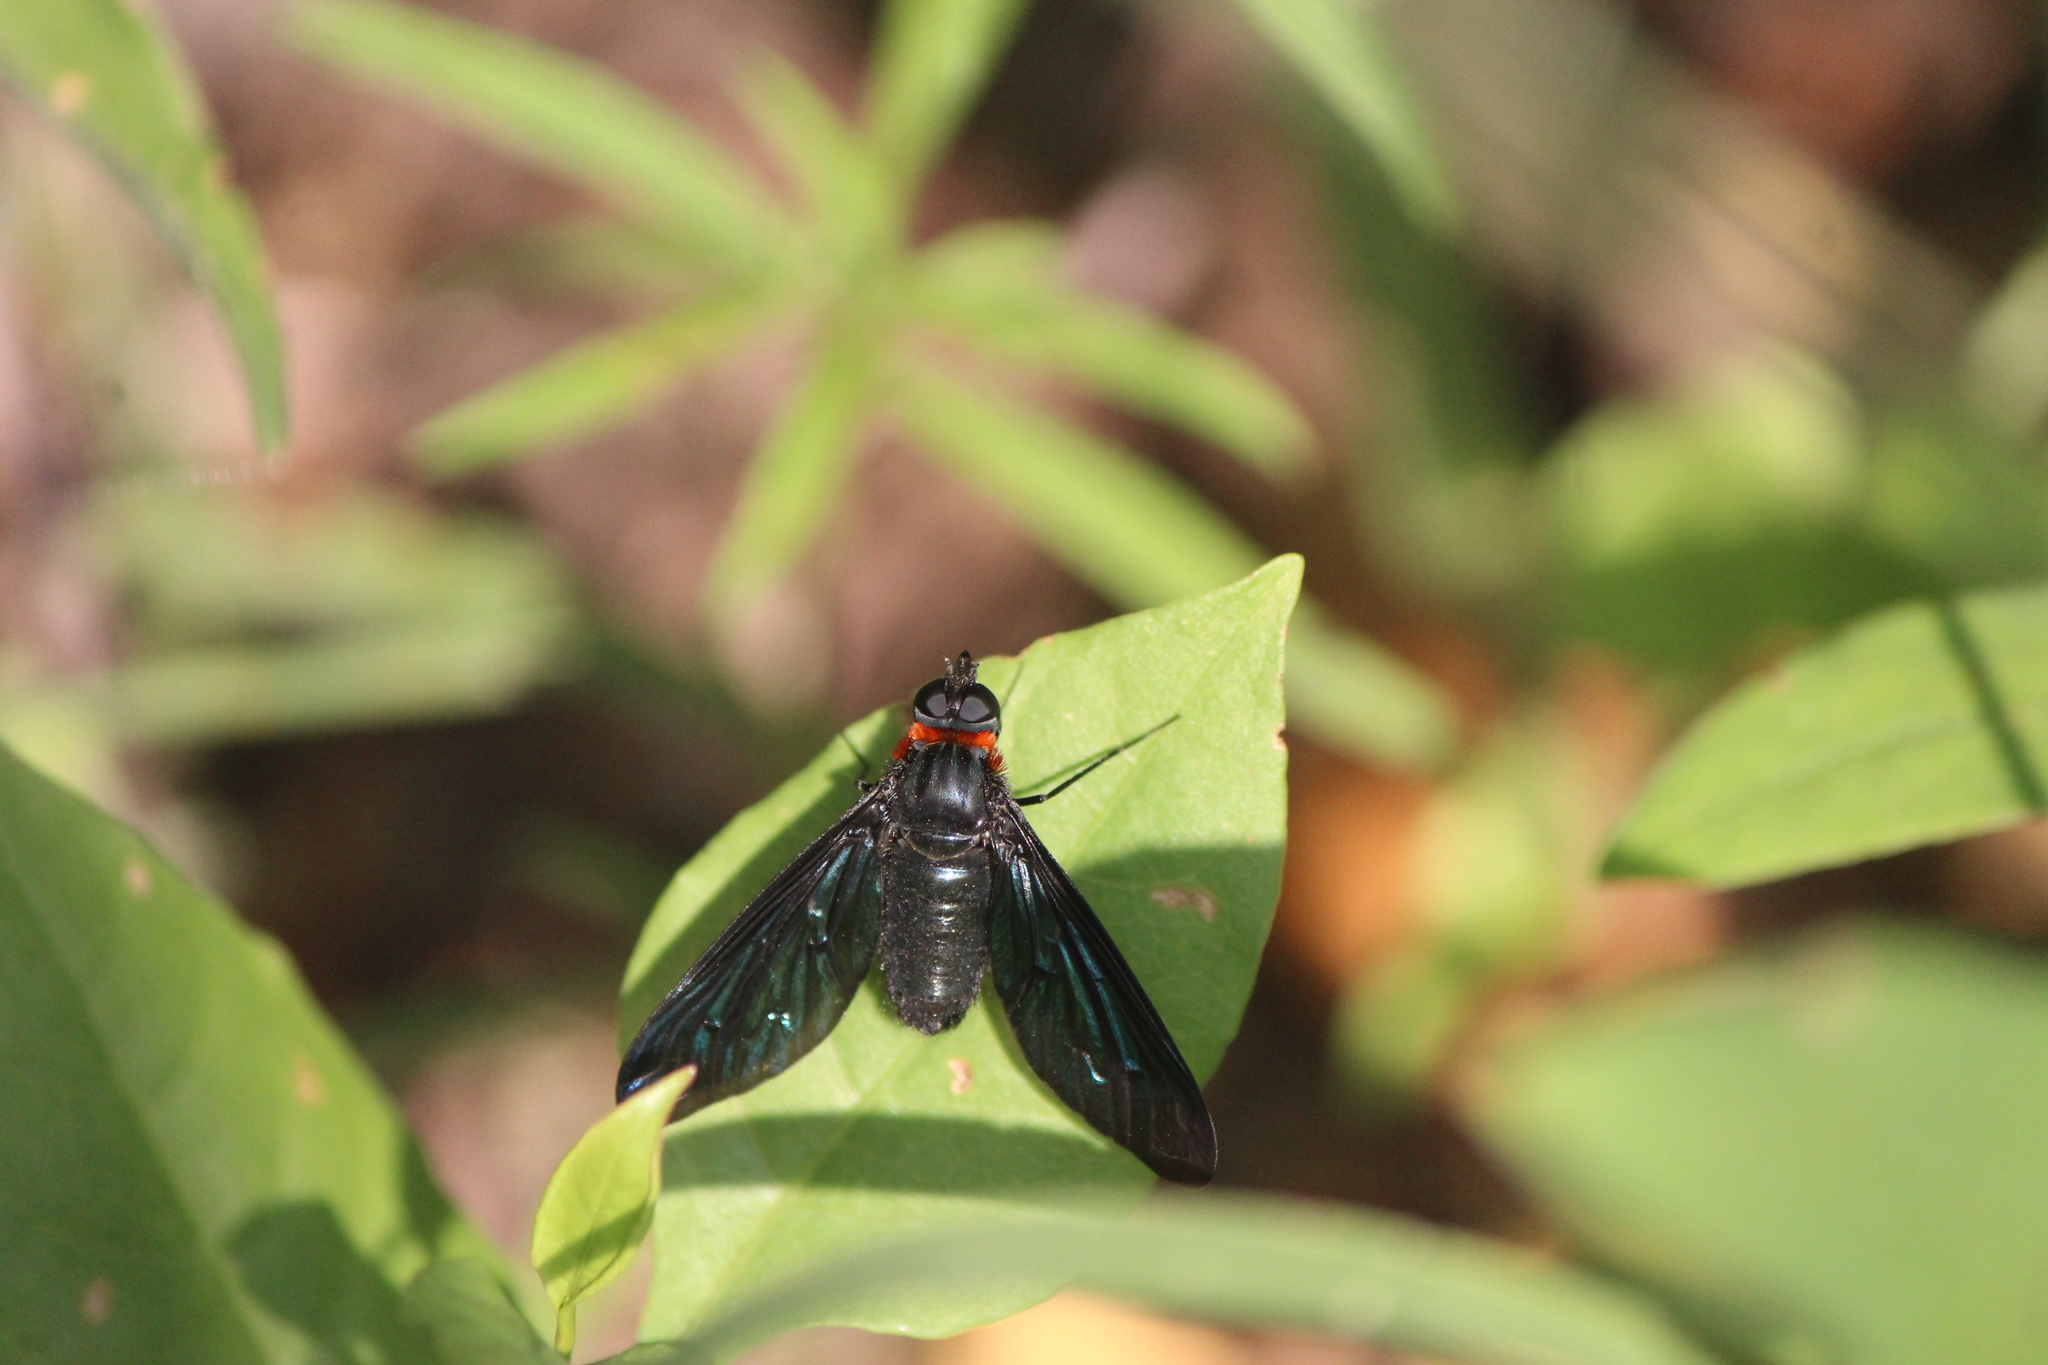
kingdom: Animalia
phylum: Arthropoda
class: Insecta
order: Diptera
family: Bombyliidae
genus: Cyananthrax
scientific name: Cyananthrax cyanoptera
